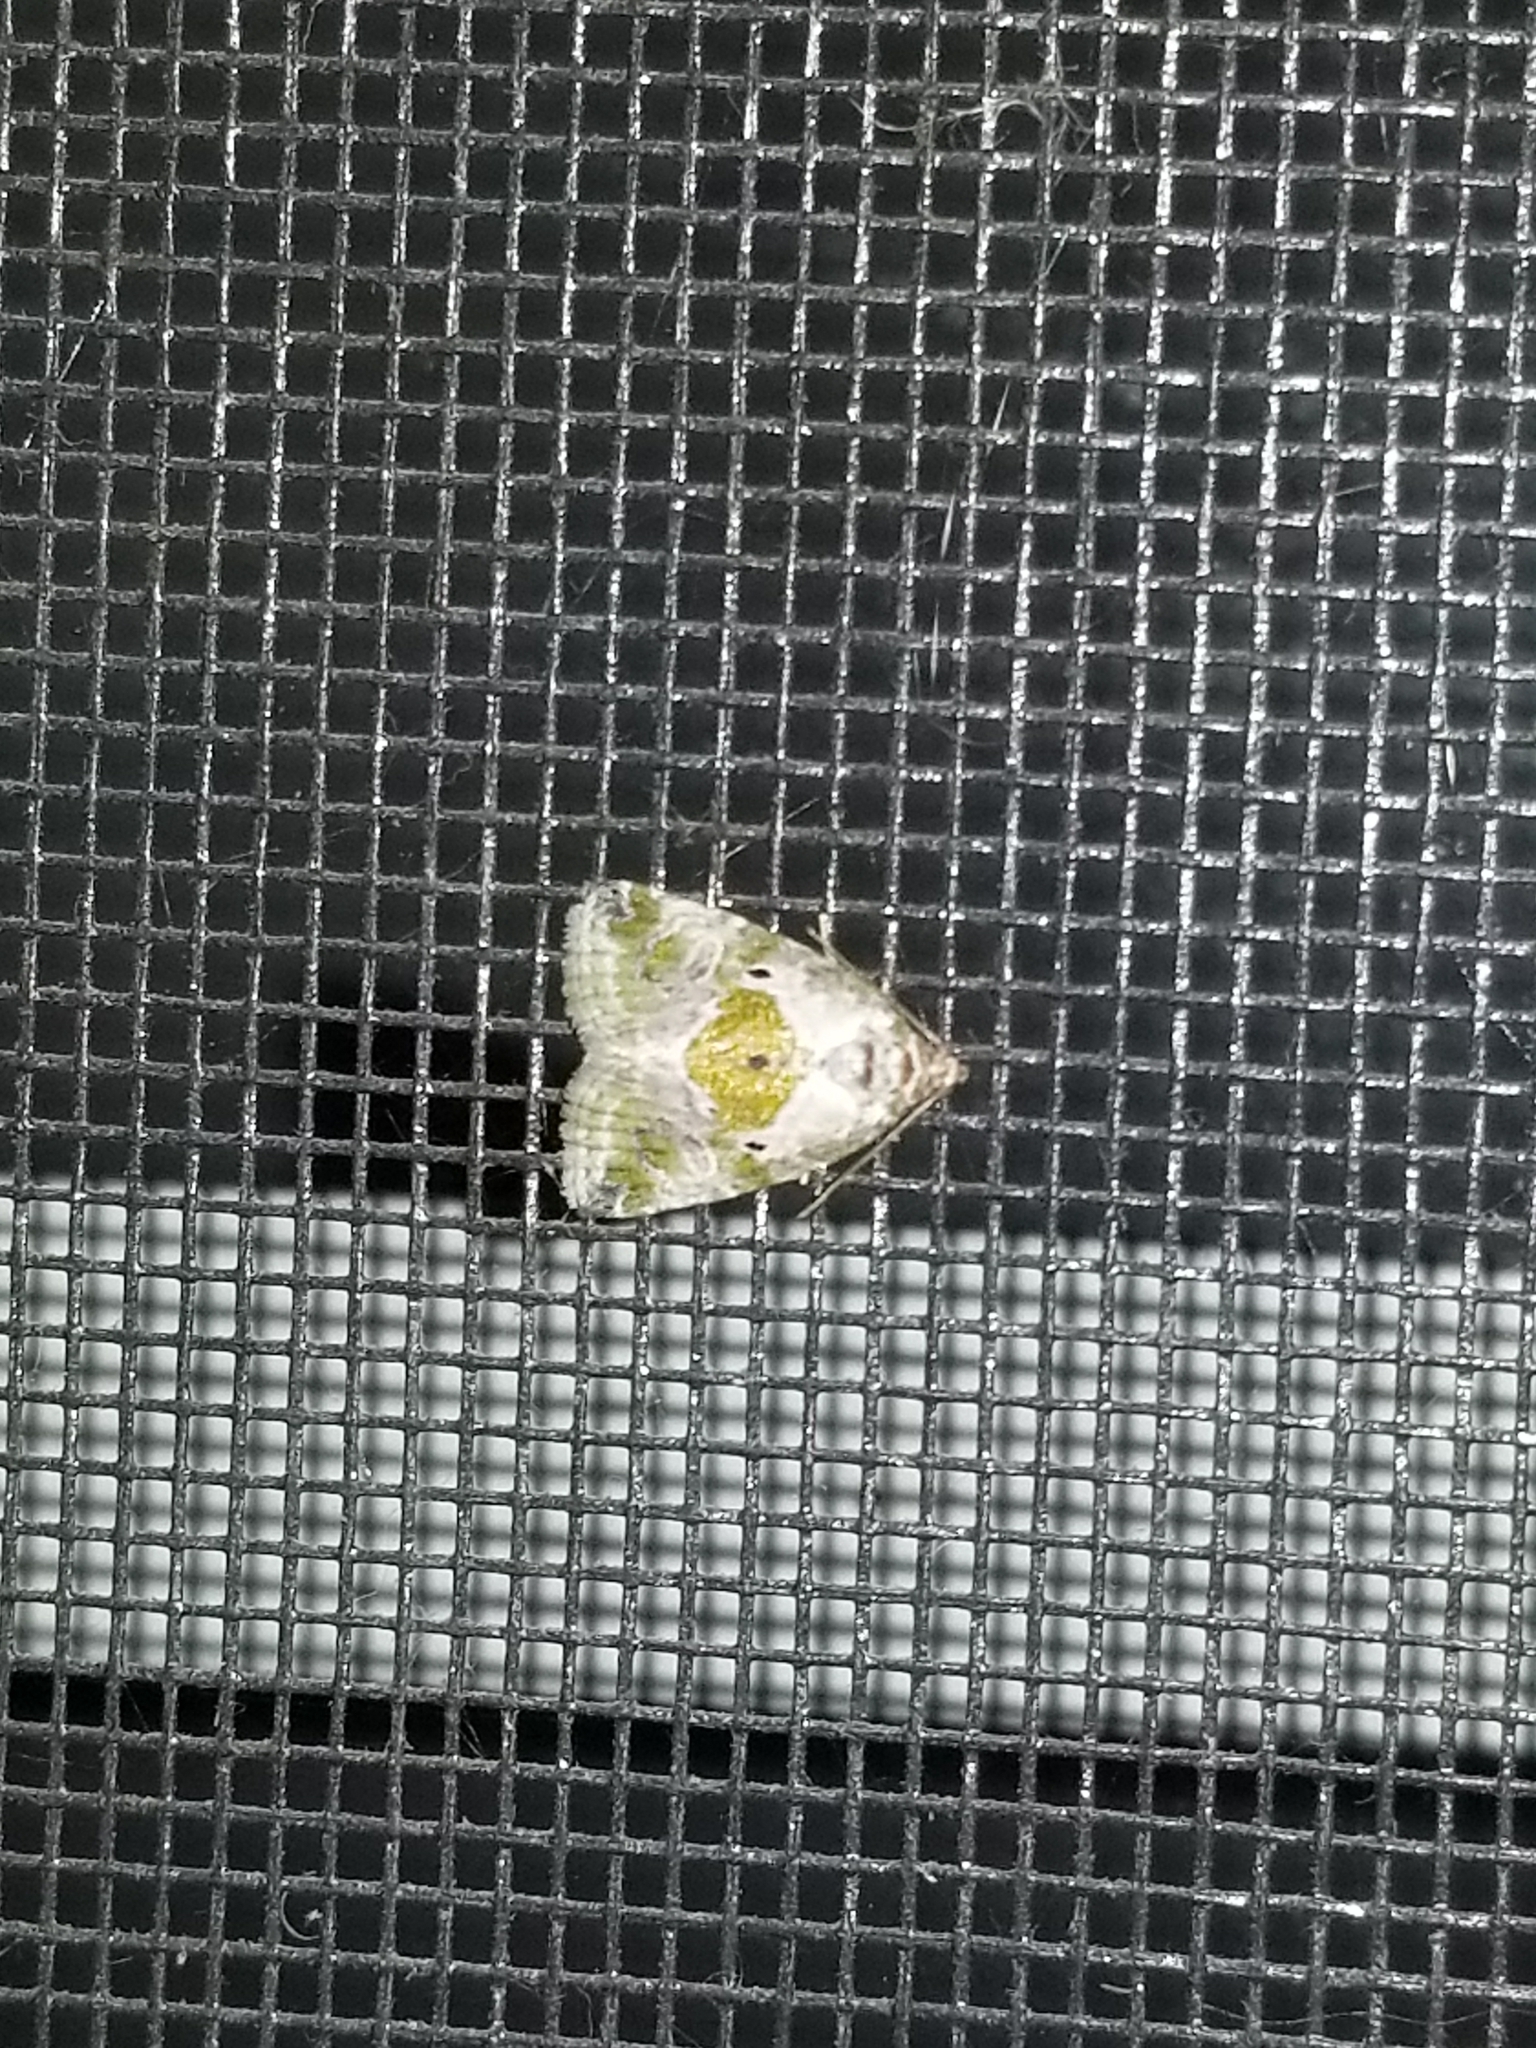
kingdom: Animalia
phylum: Arthropoda
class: Insecta
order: Lepidoptera
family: Noctuidae
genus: Maliattha
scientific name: Maliattha synochitis
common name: Black-dotted glyph
